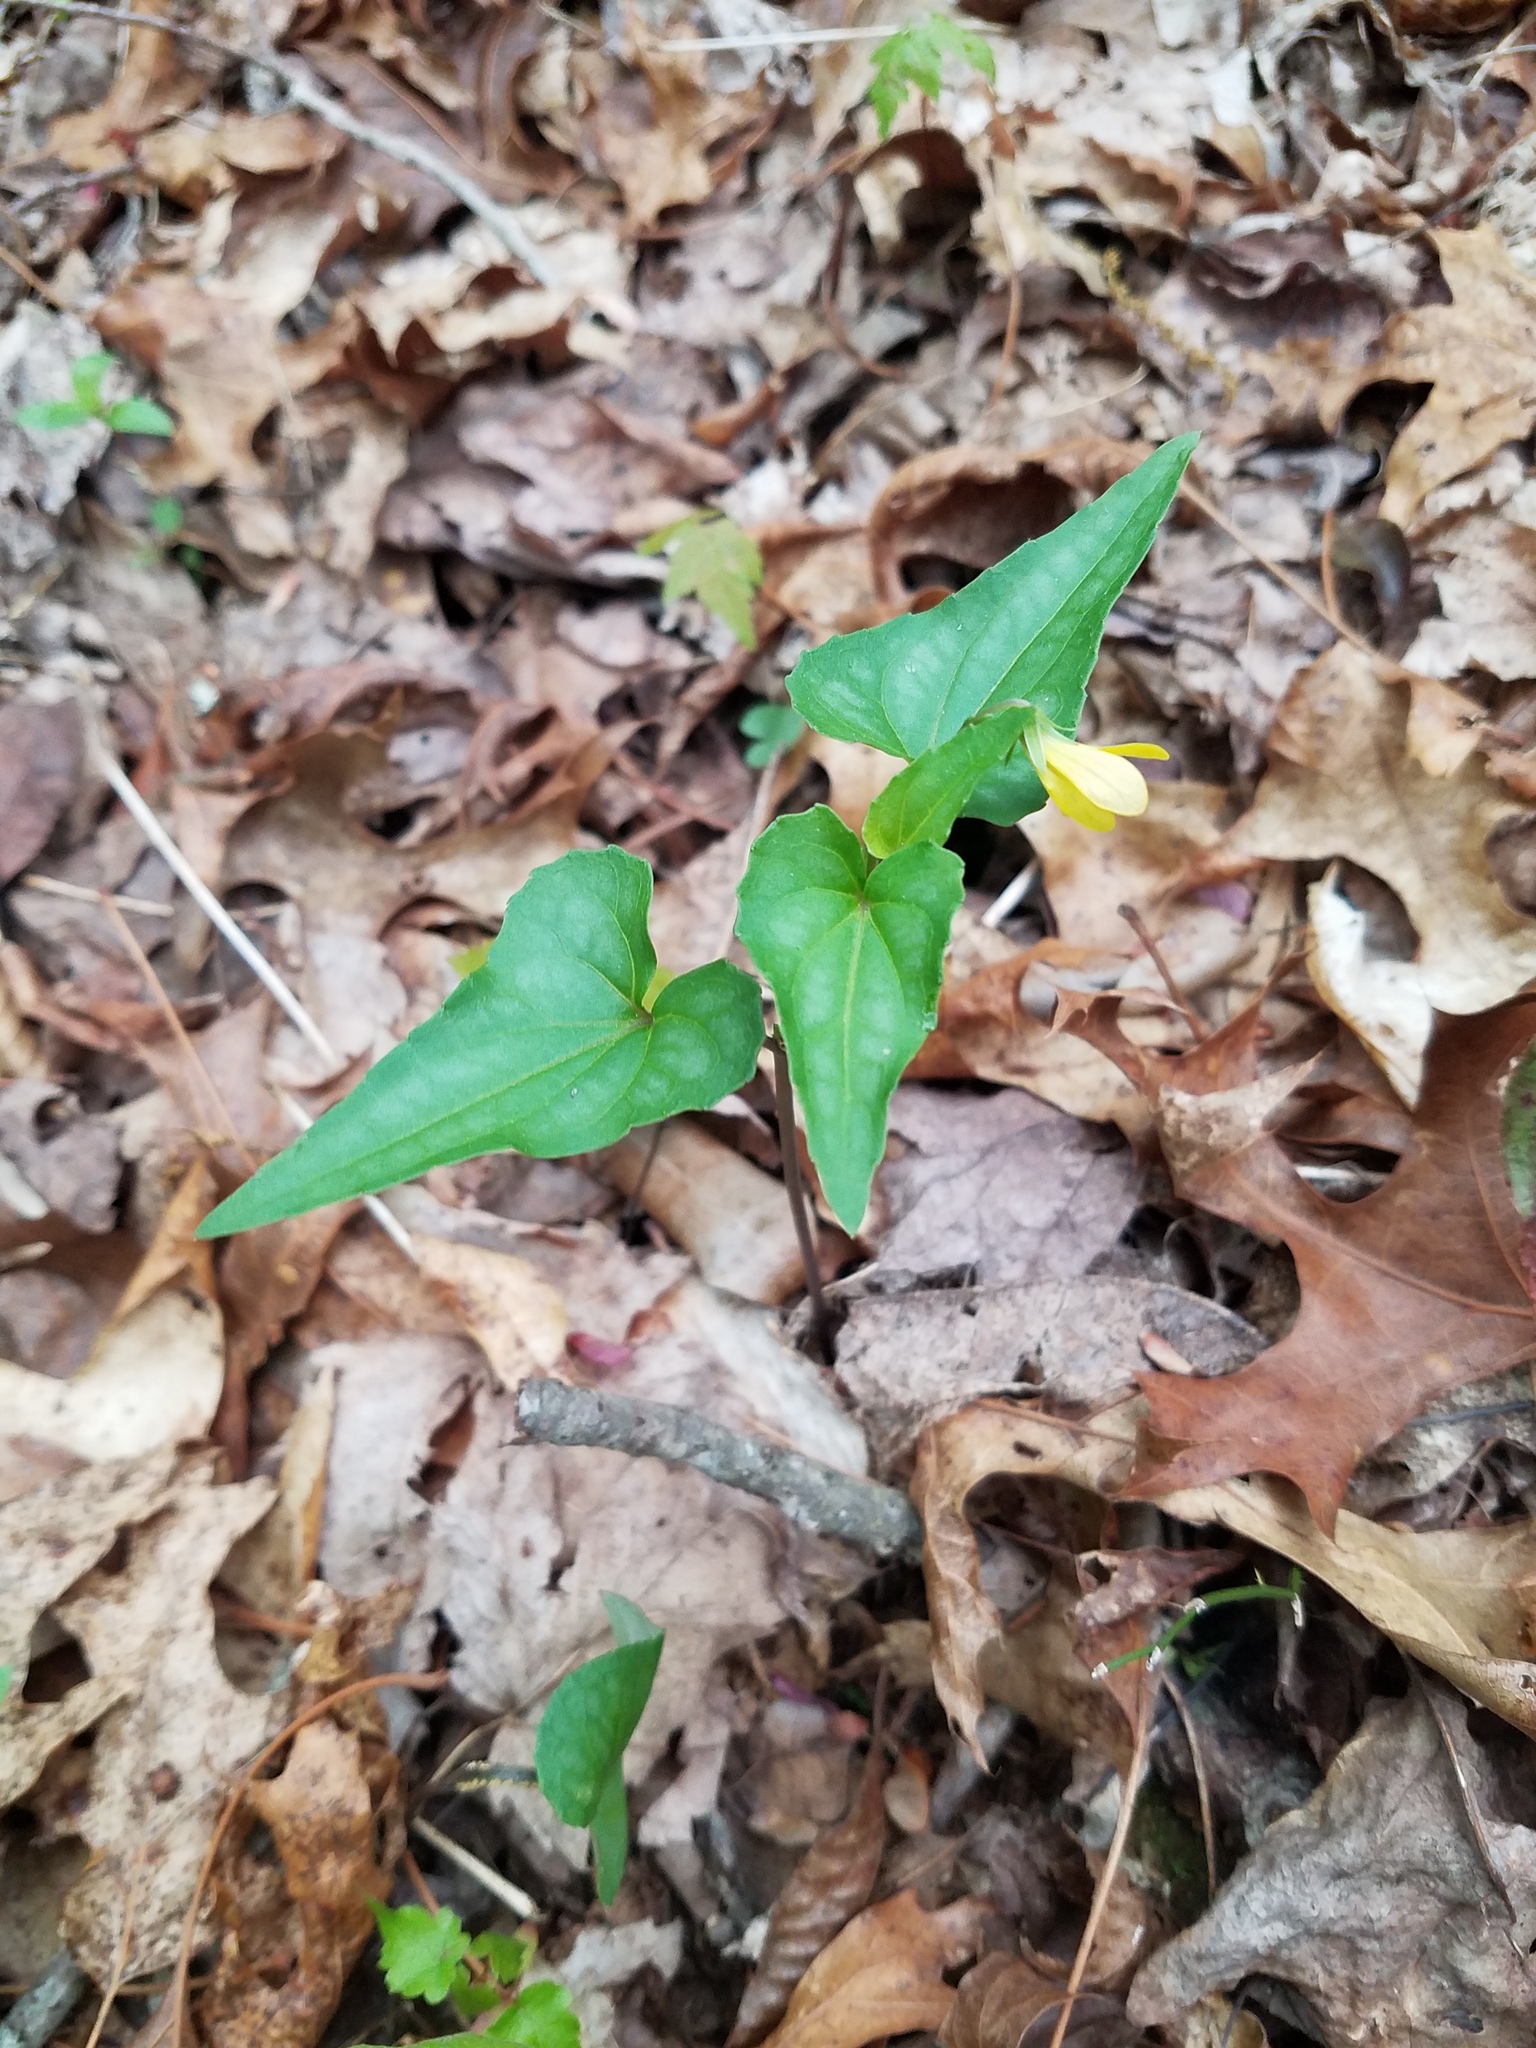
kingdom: Plantae
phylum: Tracheophyta
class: Magnoliopsida
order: Malpighiales
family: Violaceae
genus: Viola
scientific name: Viola hastata
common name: Spear-leaf violet
